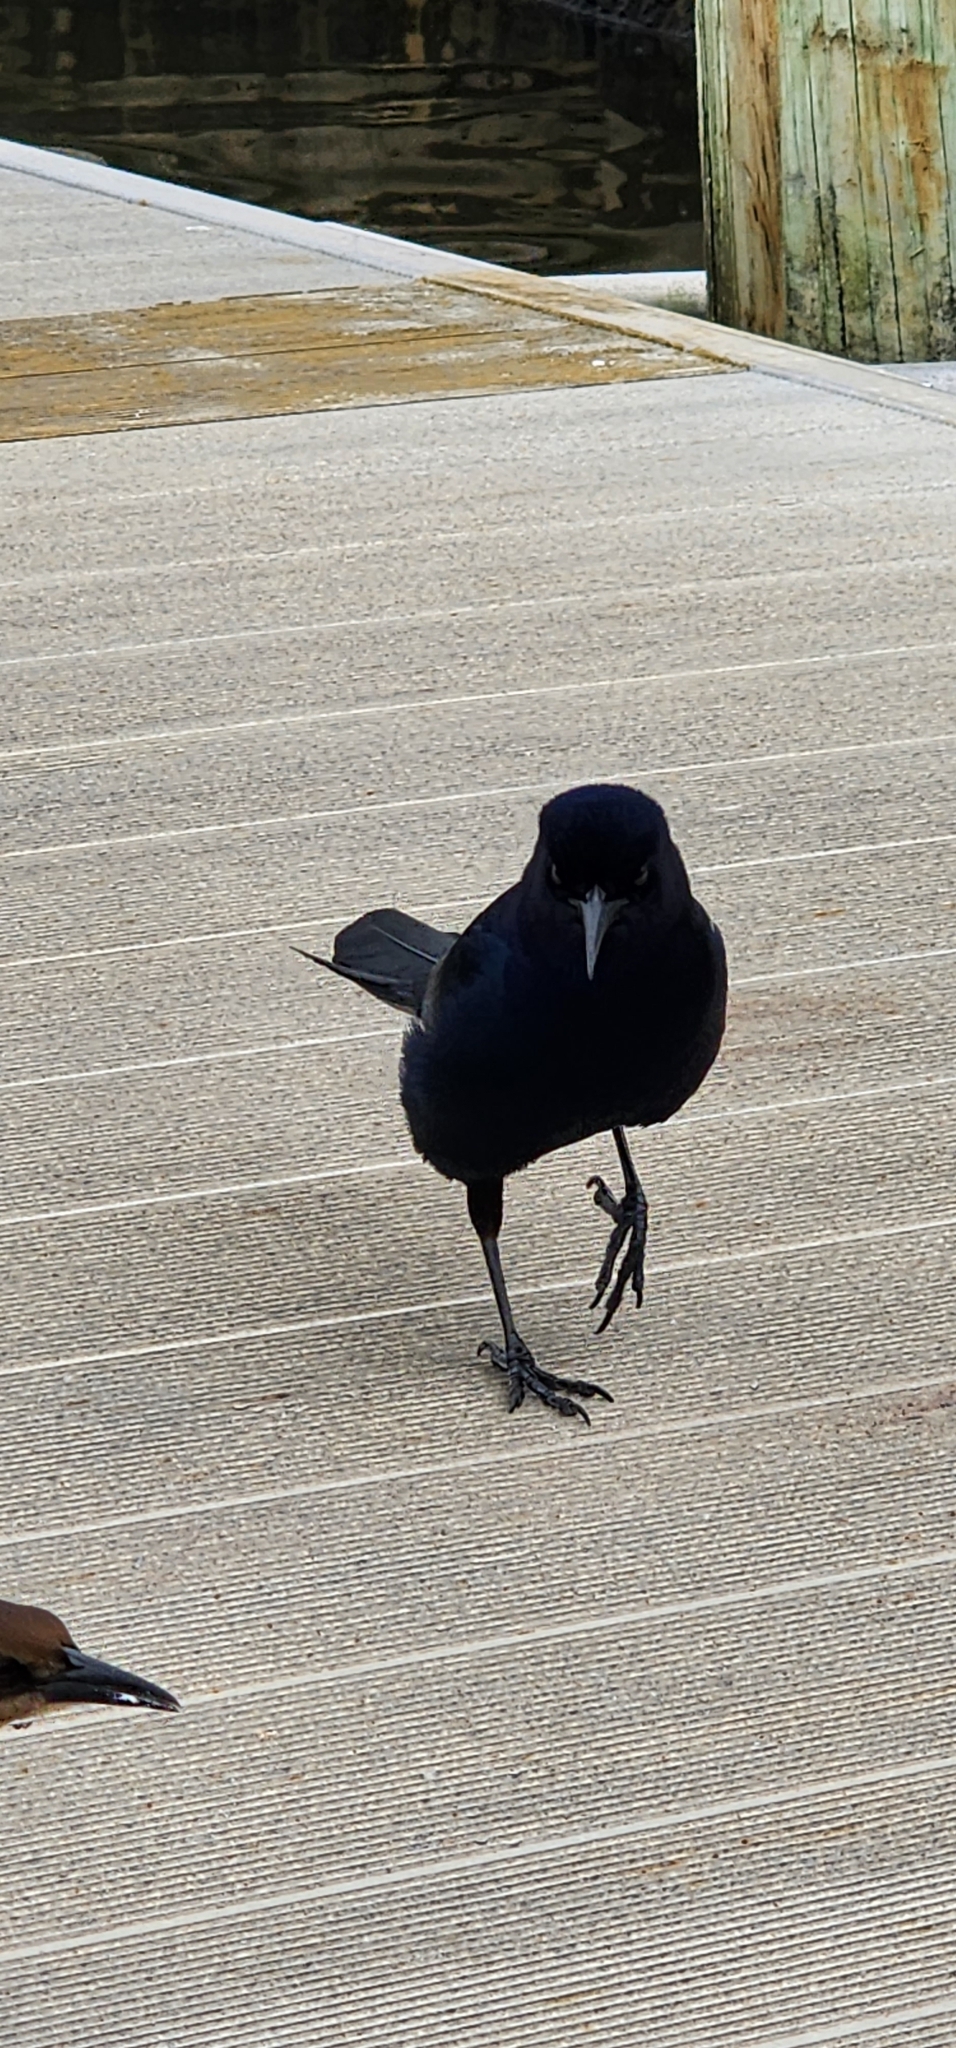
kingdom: Animalia
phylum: Chordata
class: Aves
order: Passeriformes
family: Icteridae
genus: Quiscalus
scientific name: Quiscalus major
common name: Boat-tailed grackle
